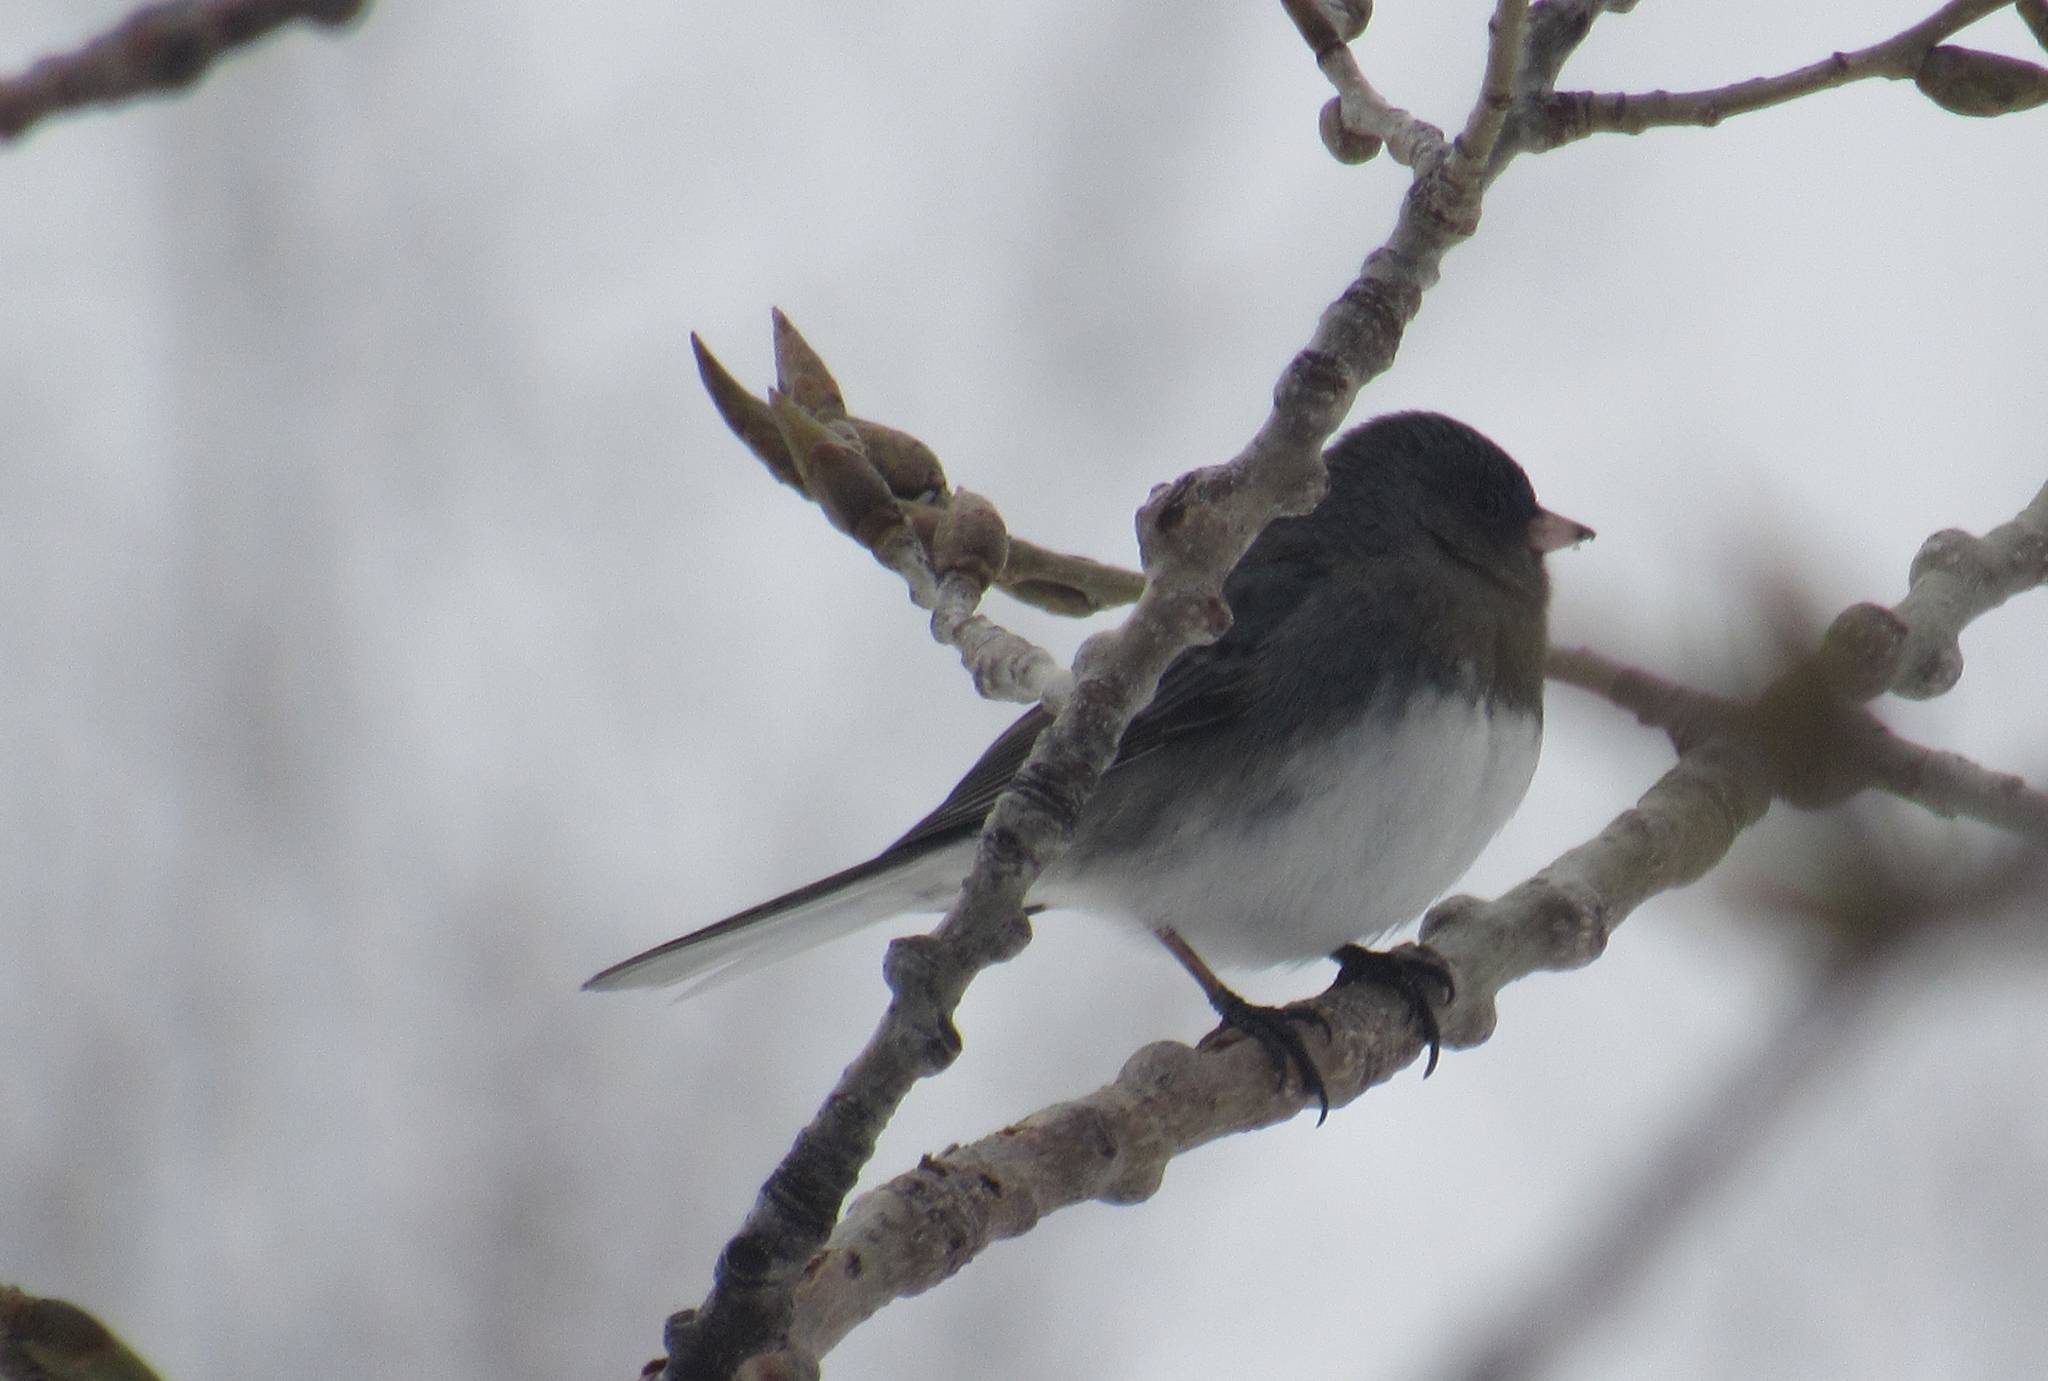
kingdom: Animalia
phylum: Chordata
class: Aves
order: Passeriformes
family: Passerellidae
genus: Junco
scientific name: Junco hyemalis
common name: Dark-eyed junco
